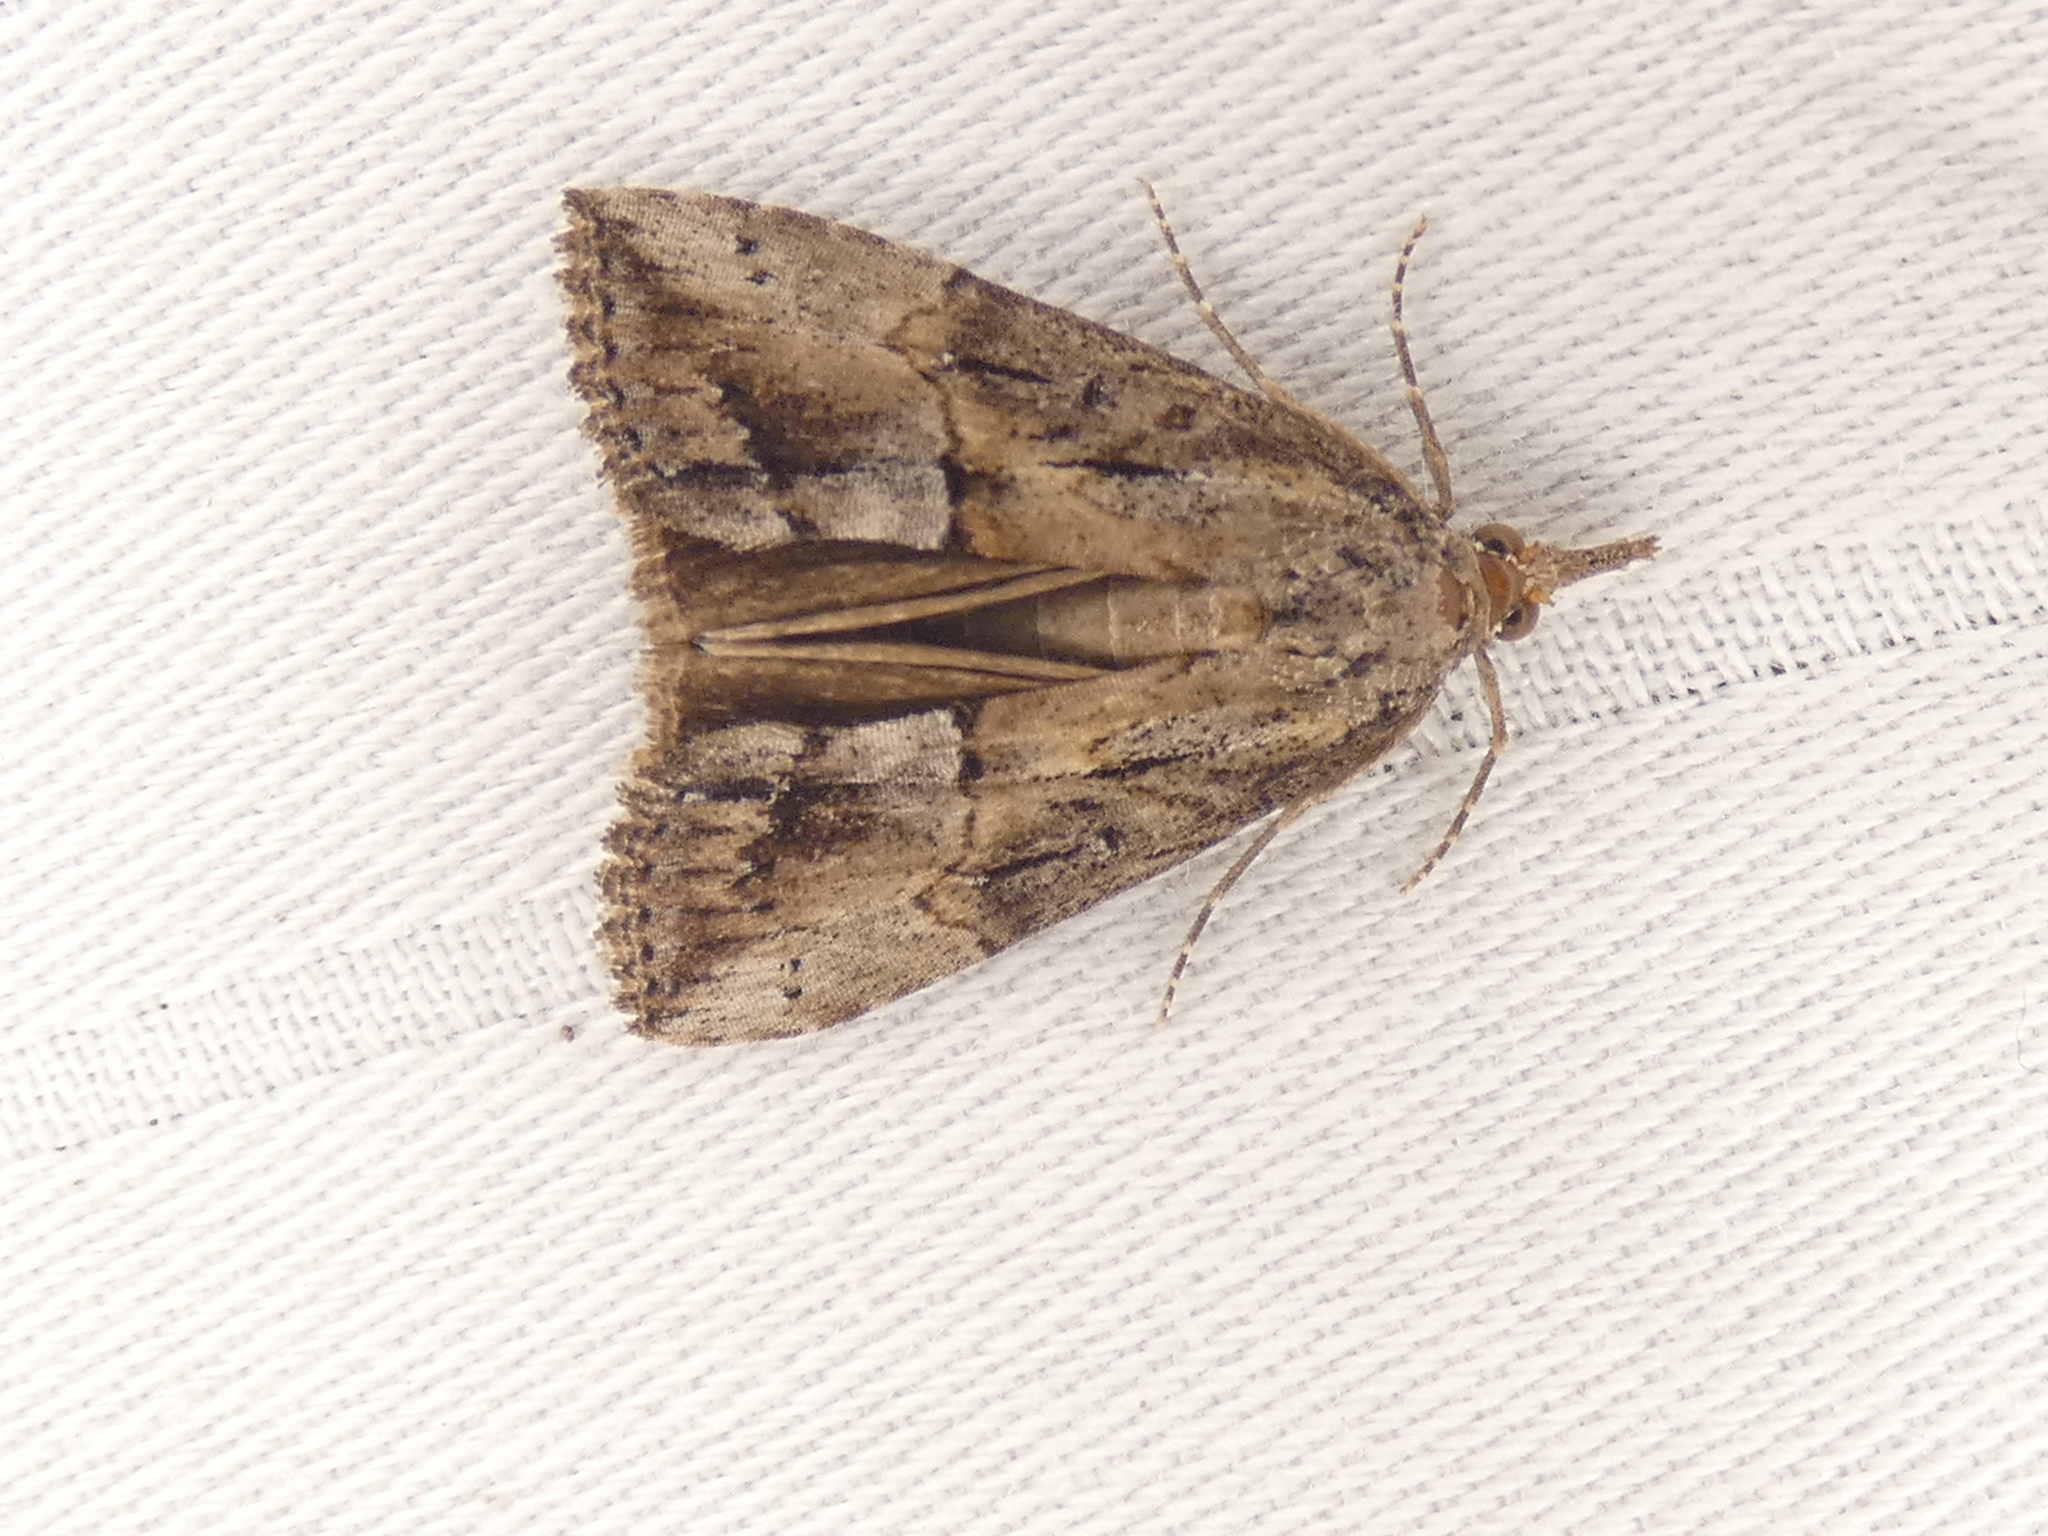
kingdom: Animalia
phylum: Arthropoda
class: Insecta
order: Lepidoptera
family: Erebidae
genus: Hypena
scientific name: Hypena scabra
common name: Green cloverworm
